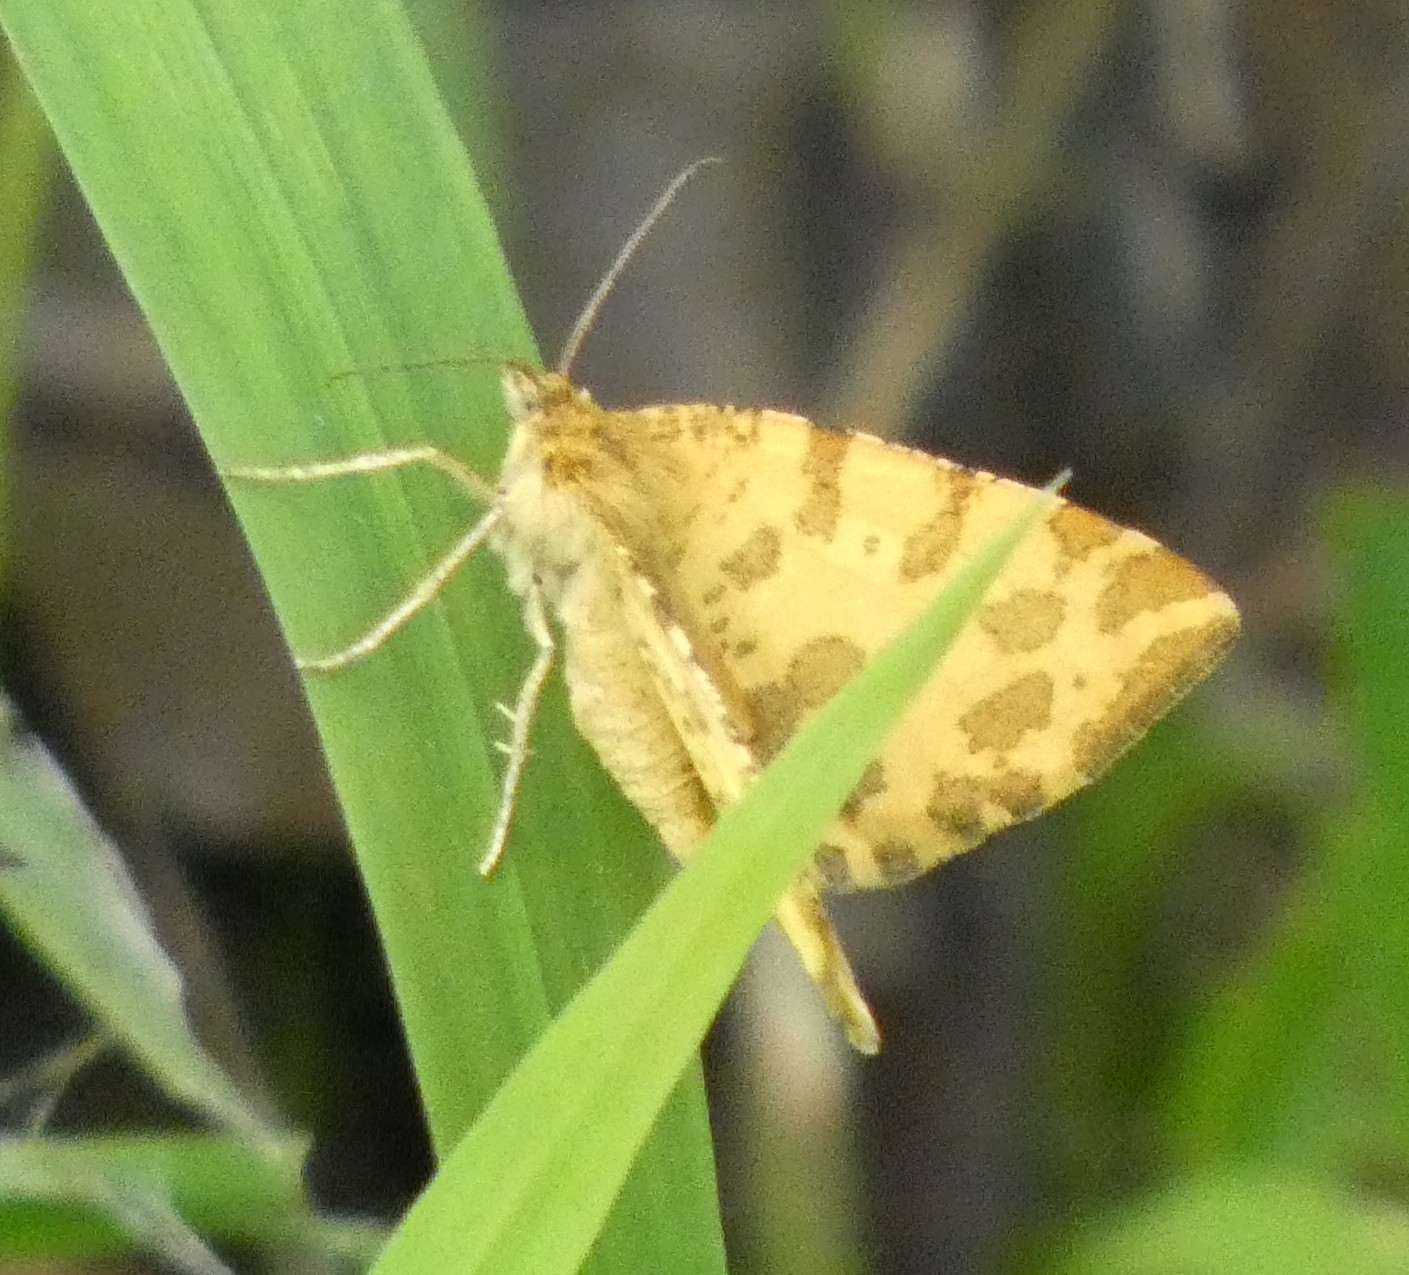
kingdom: Animalia
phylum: Arthropoda
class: Insecta
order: Lepidoptera
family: Geometridae
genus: Pseudopanthera
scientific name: Pseudopanthera macularia
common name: Speckled yellow
